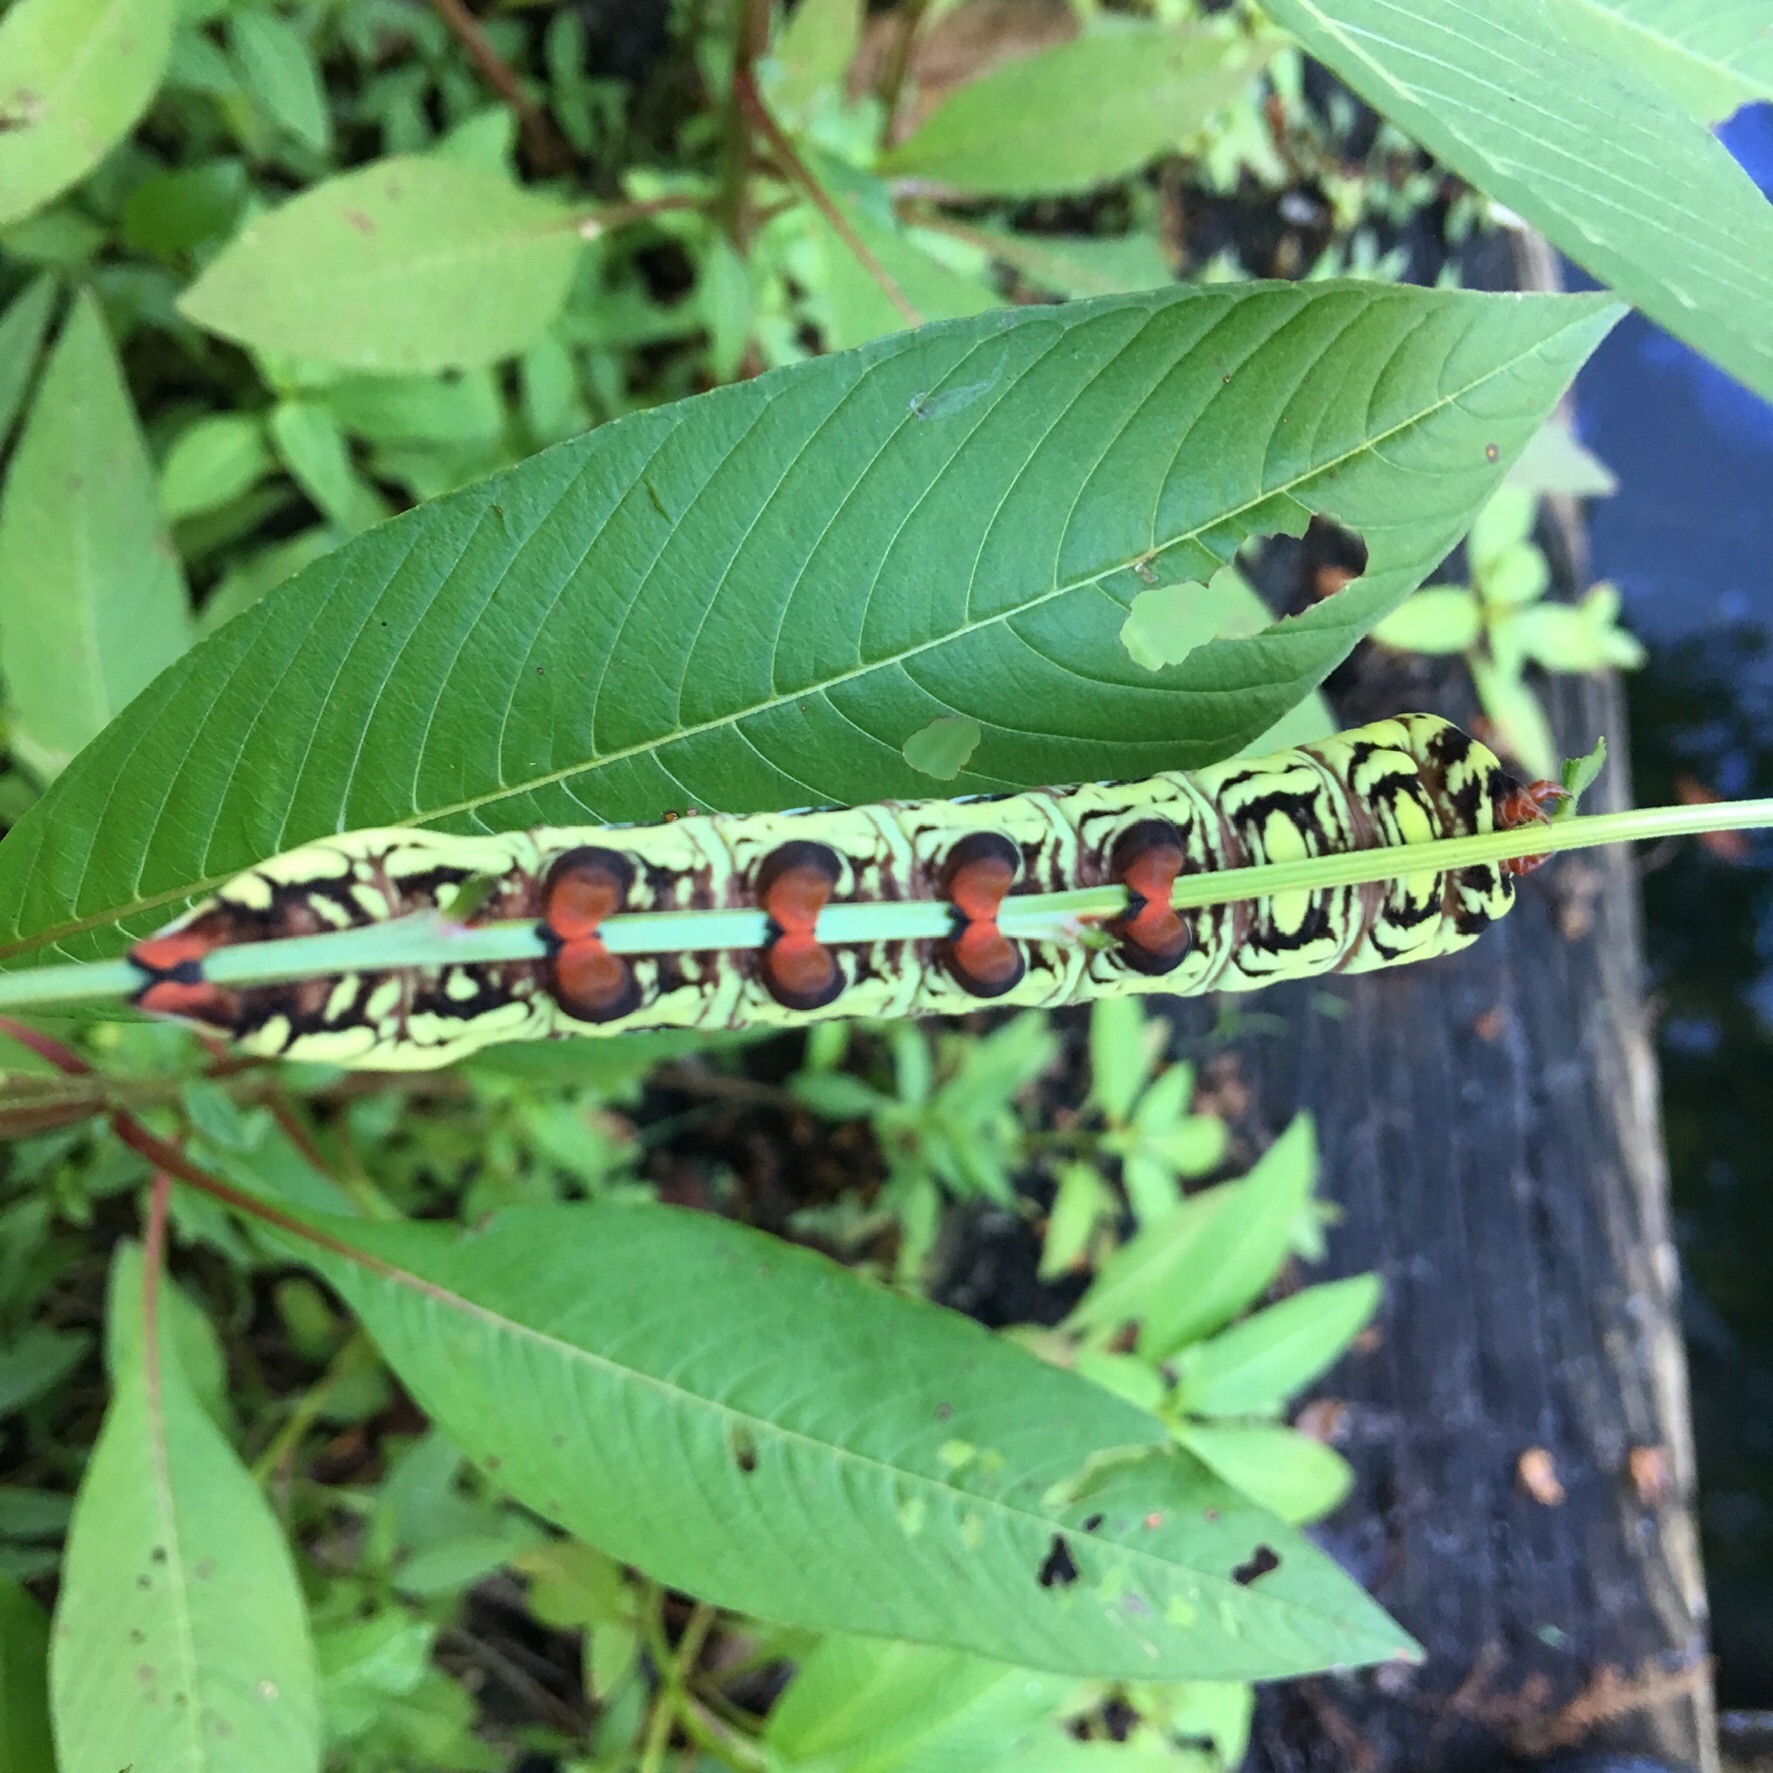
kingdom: Animalia
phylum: Arthropoda
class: Insecta
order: Lepidoptera
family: Sphingidae
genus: Eumorpha
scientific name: Eumorpha fasciatus
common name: Banded sphinx
